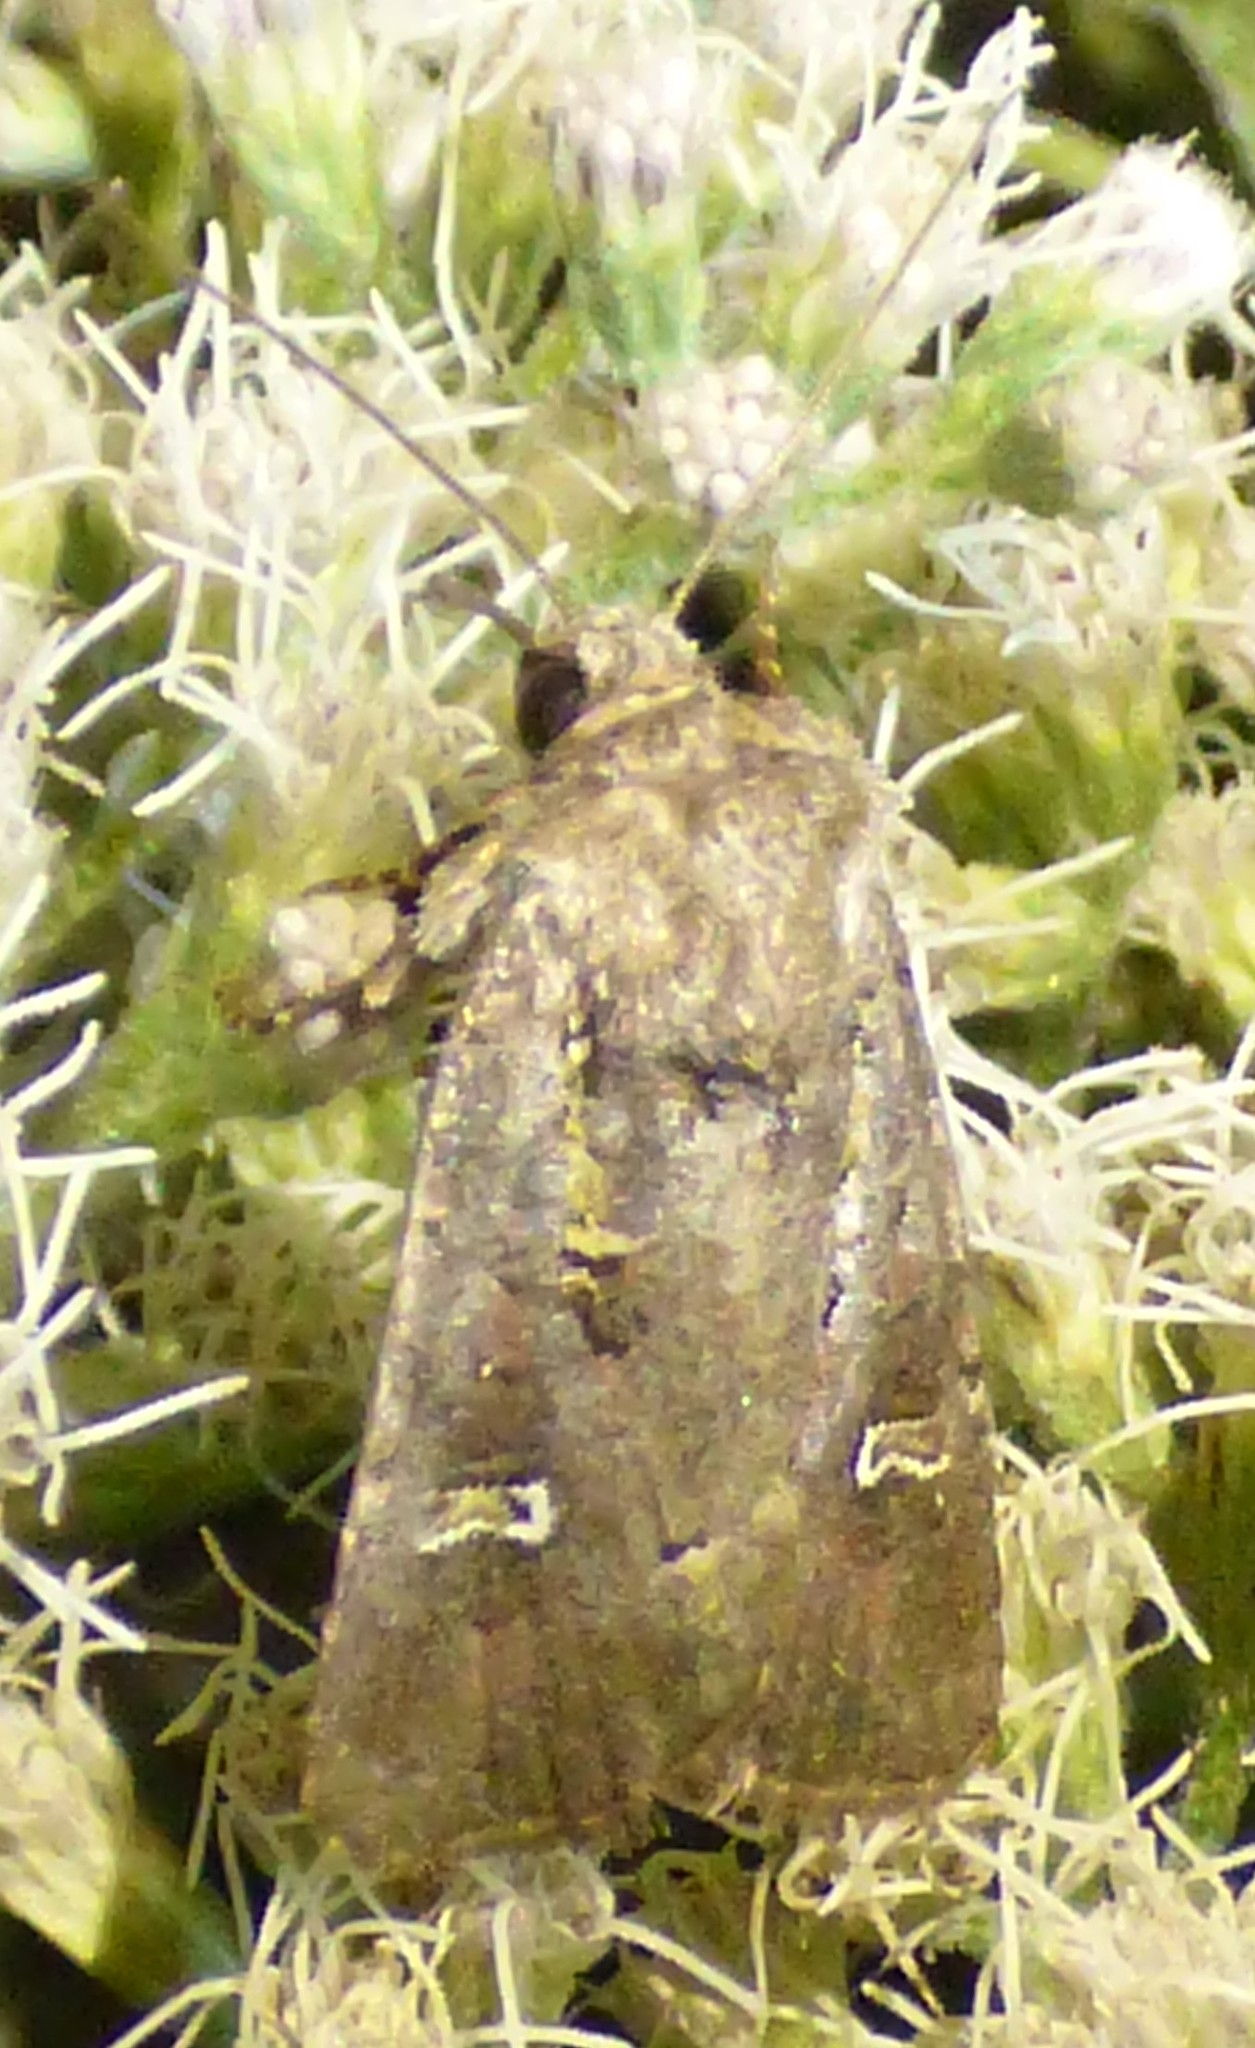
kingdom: Animalia
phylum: Arthropoda
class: Insecta
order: Lepidoptera
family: Noctuidae
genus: Lacinipolia
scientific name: Lacinipolia renigera
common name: Kidney-spotted minor
